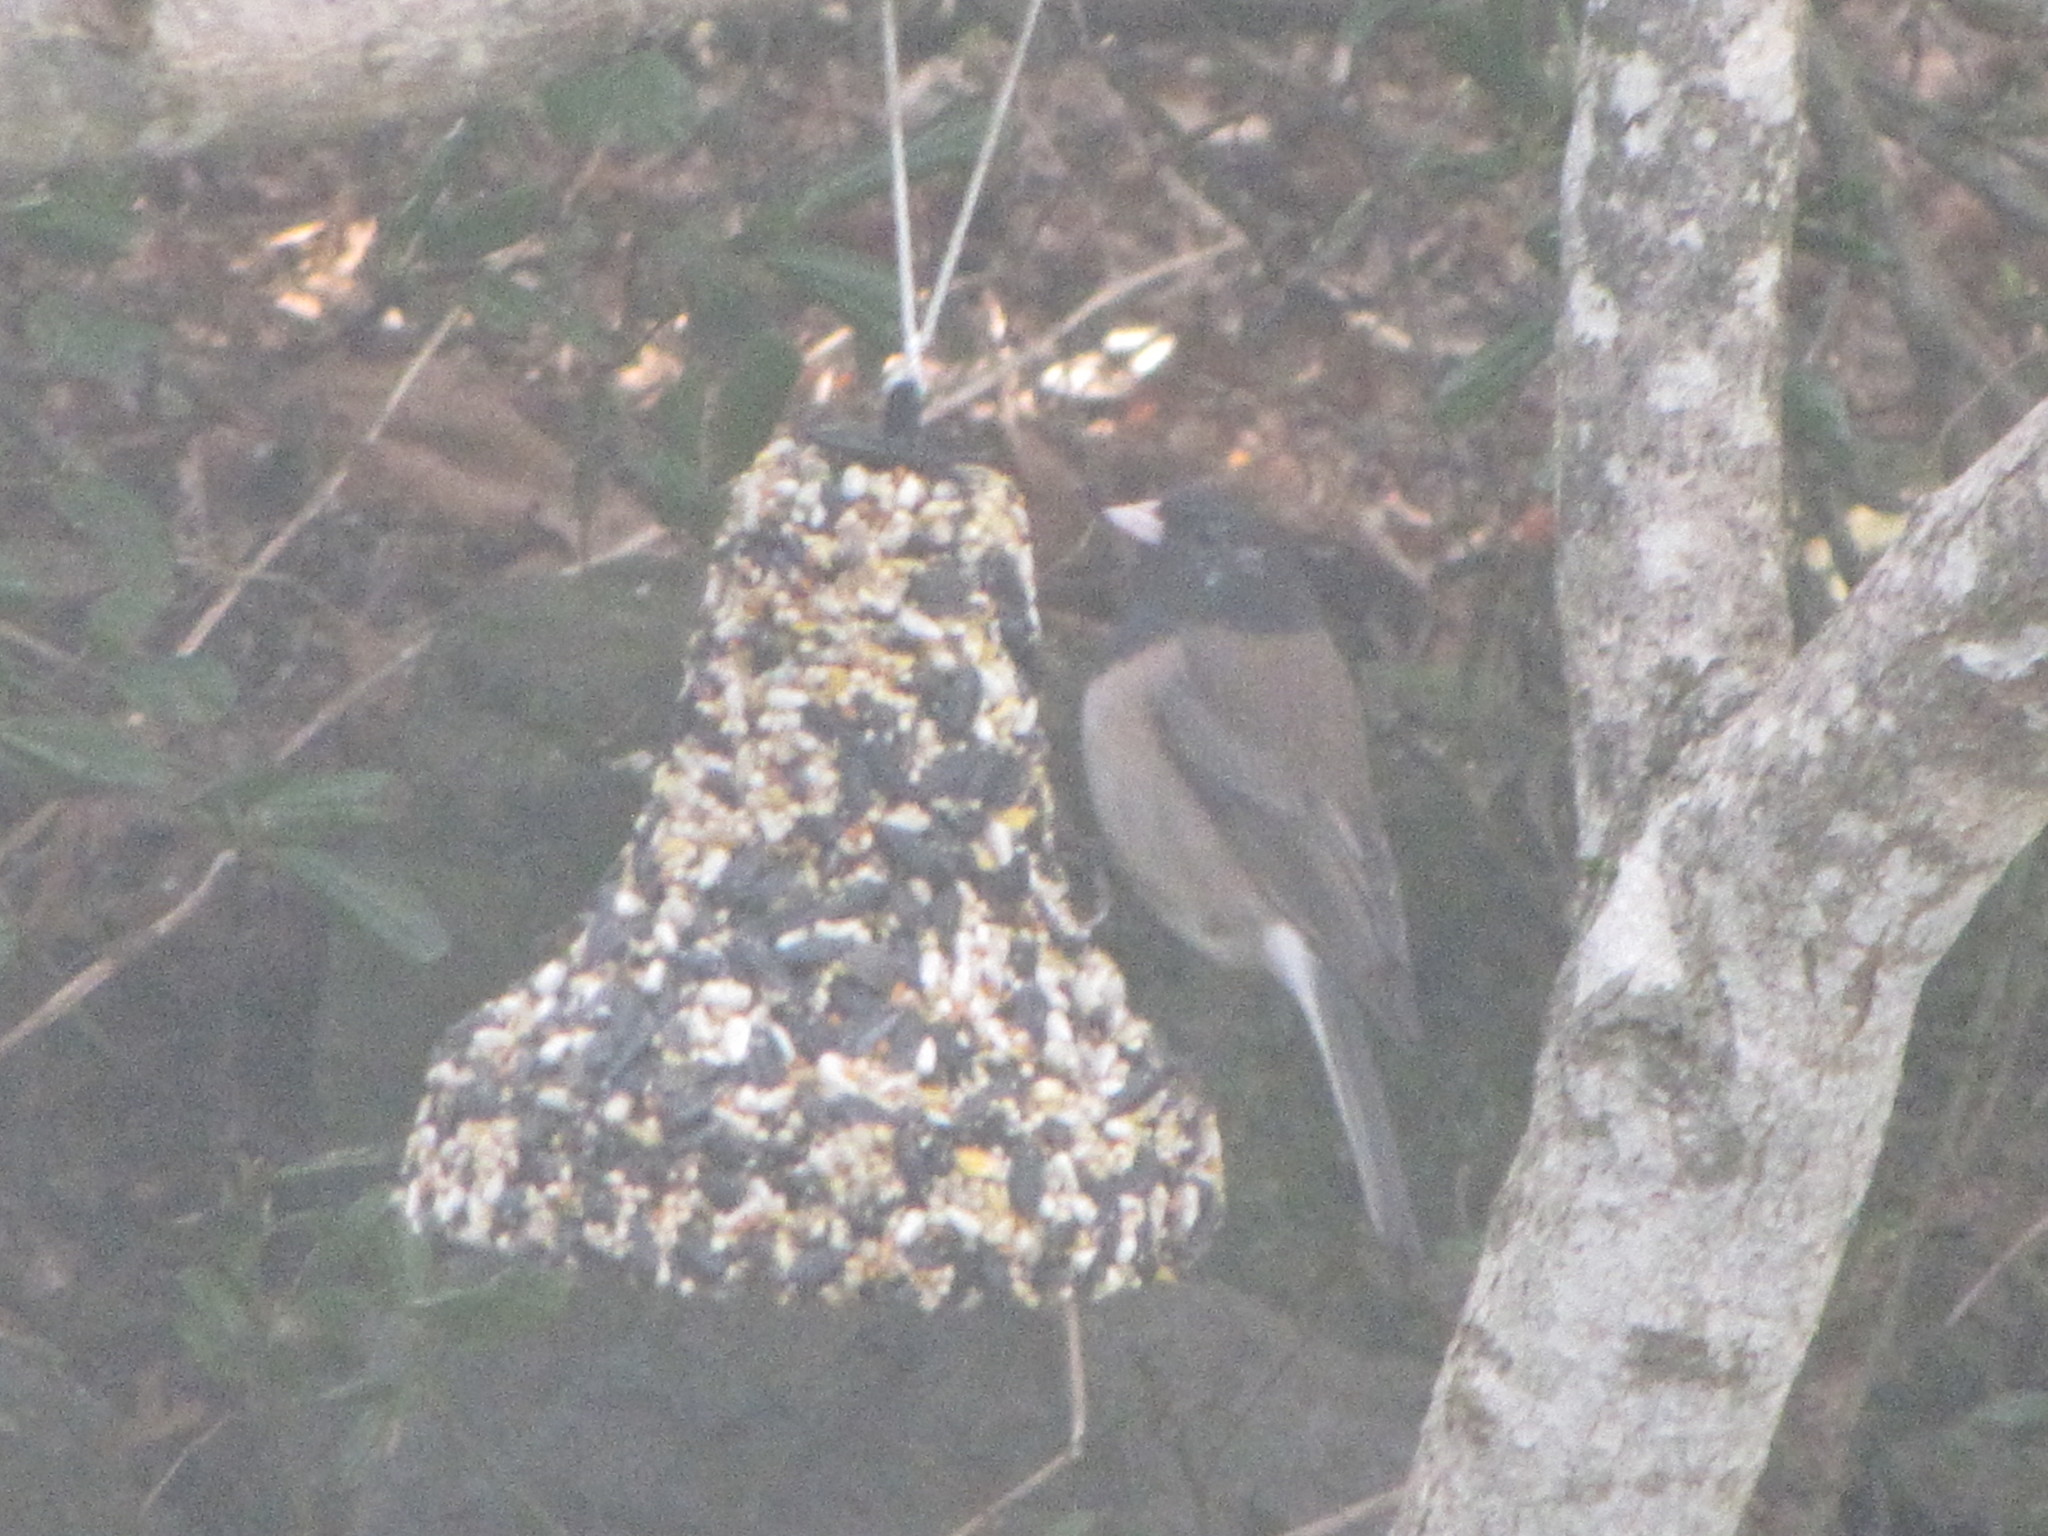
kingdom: Animalia
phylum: Chordata
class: Aves
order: Passeriformes
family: Passerellidae
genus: Junco
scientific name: Junco hyemalis
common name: Dark-eyed junco
